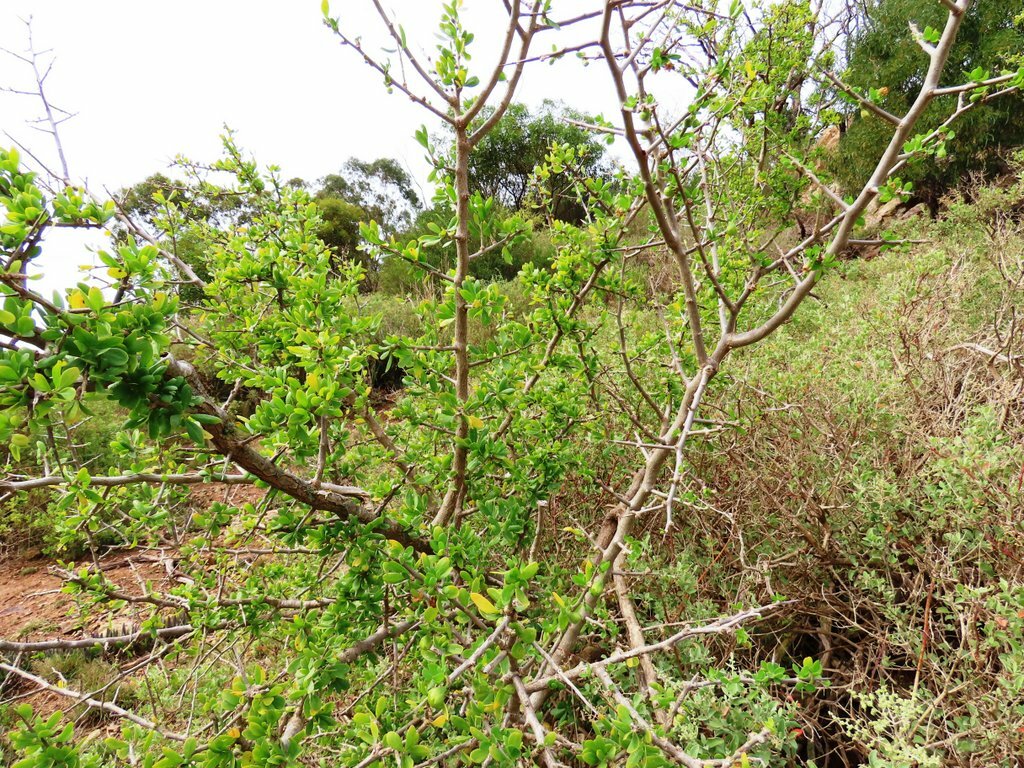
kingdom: Plantae
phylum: Tracheophyta
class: Magnoliopsida
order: Solanales
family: Solanaceae
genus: Lycium
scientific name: Lycium ferocissimum
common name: African boxthorn
